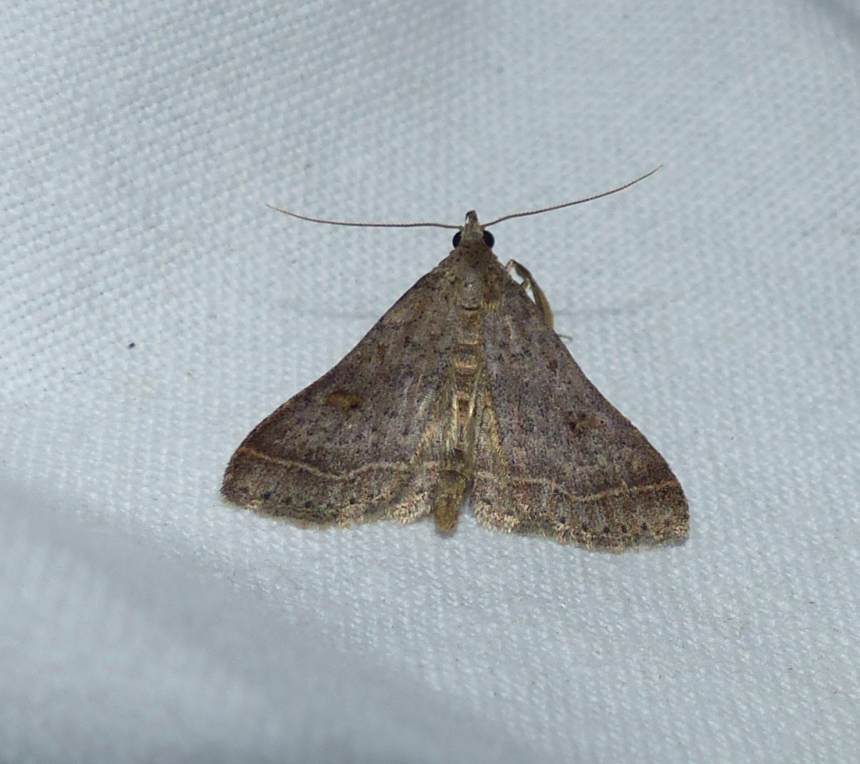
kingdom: Animalia
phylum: Arthropoda
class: Insecta
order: Lepidoptera
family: Erebidae
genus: Bleptina
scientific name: Bleptina caradrinalis
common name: Bent-winged owlet
